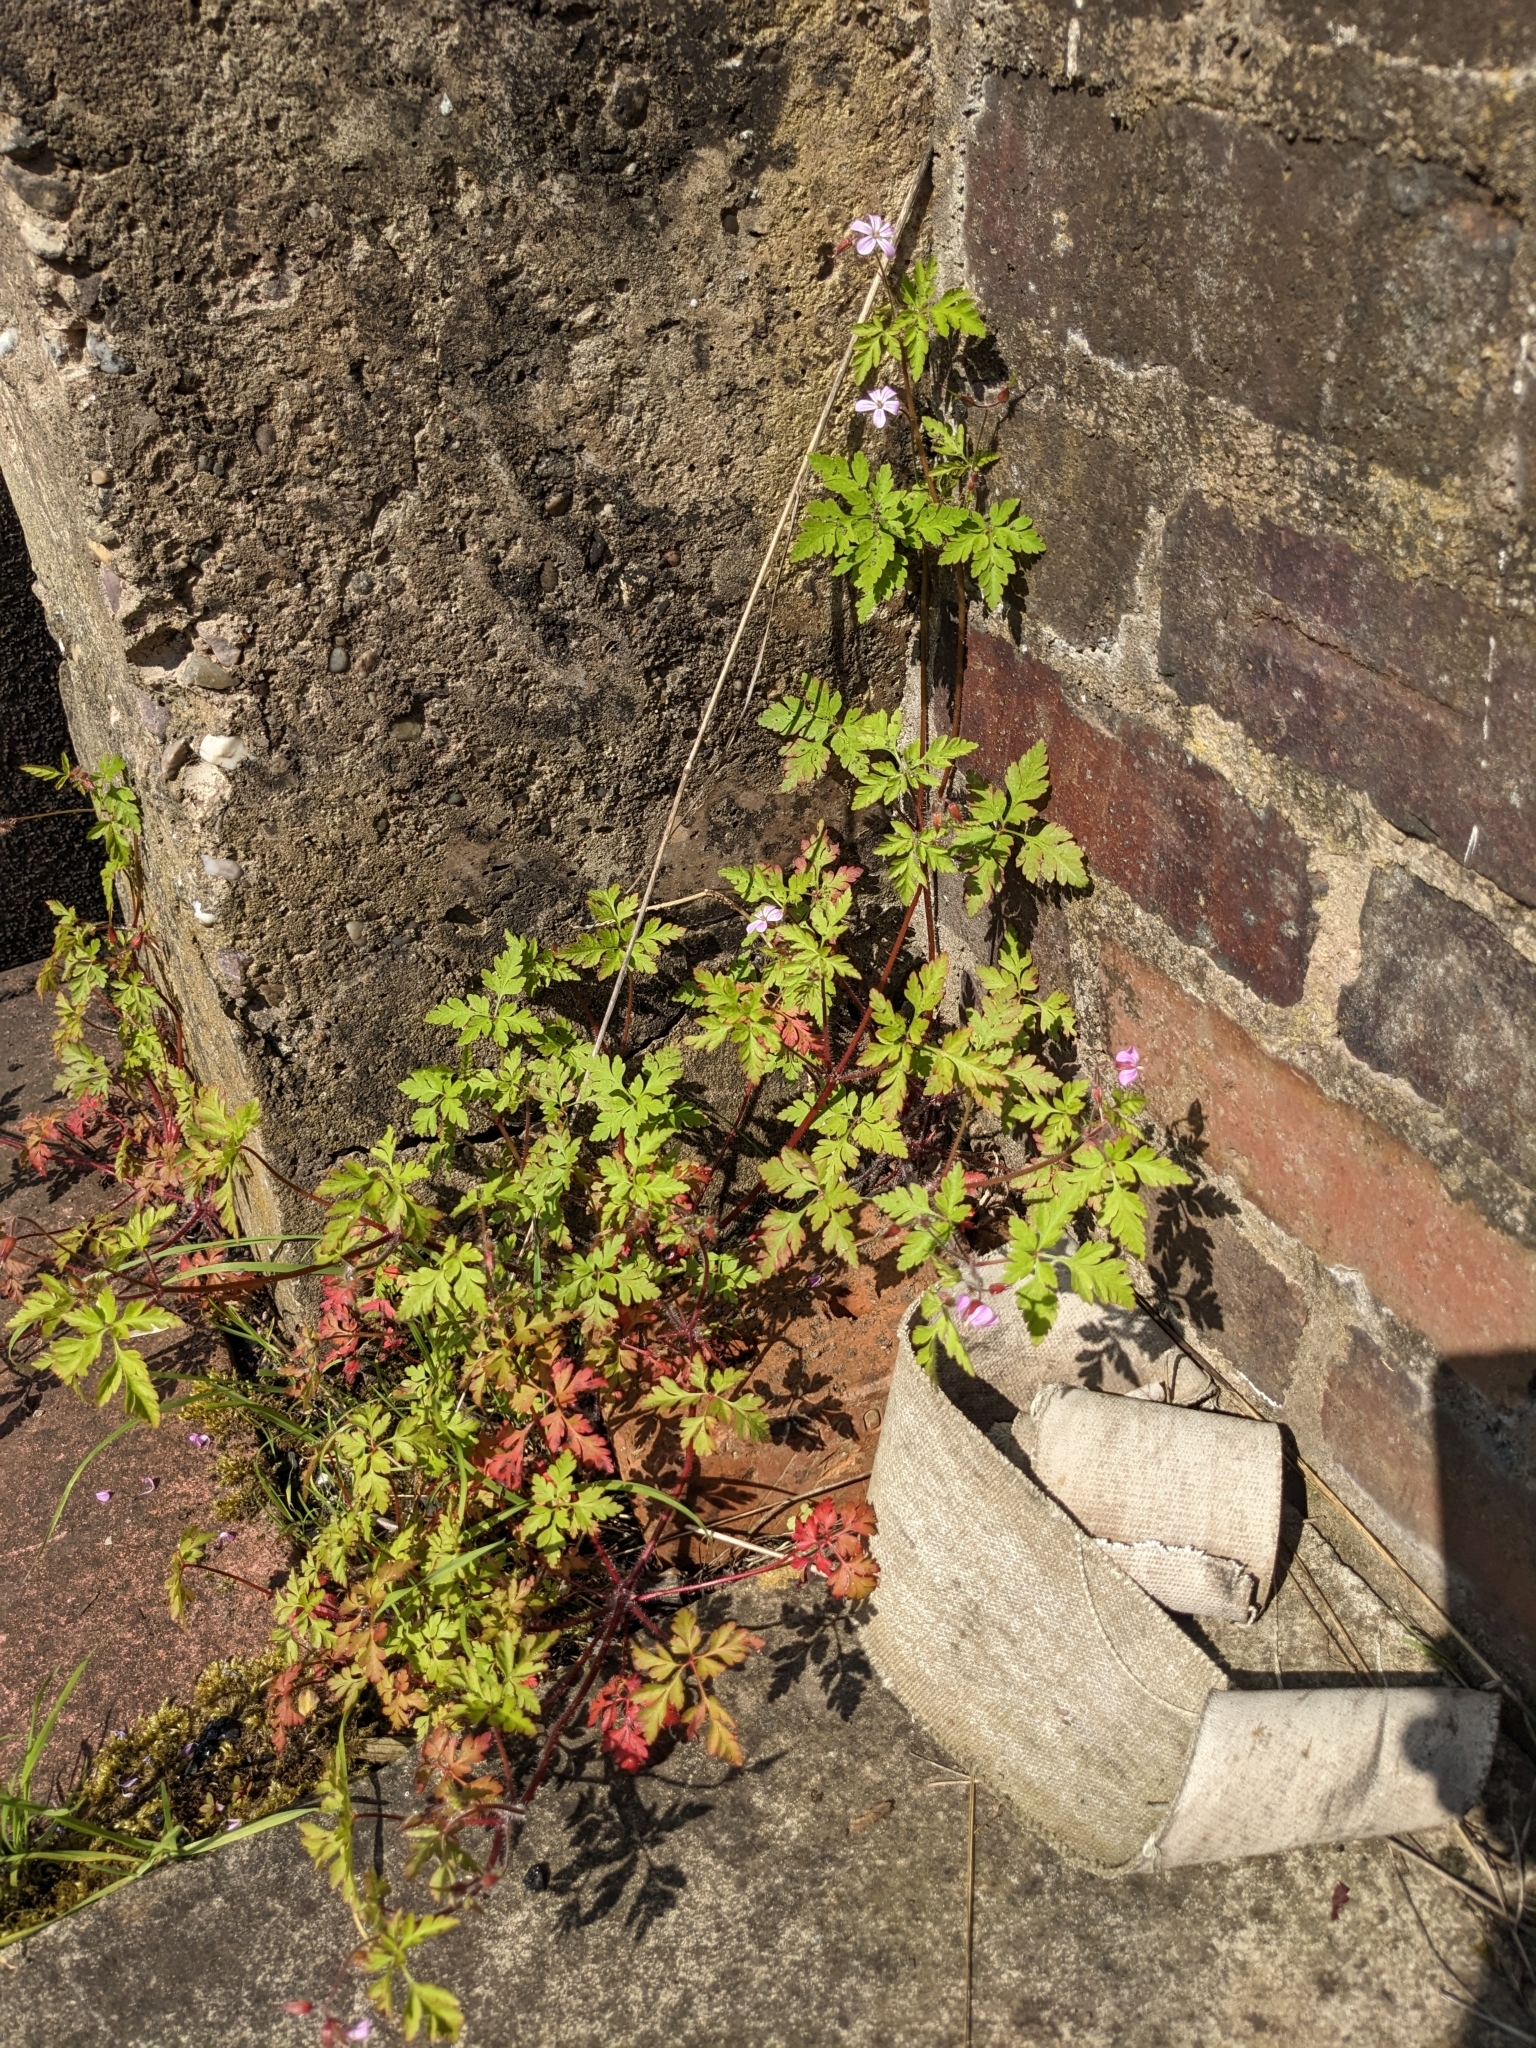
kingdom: Plantae
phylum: Tracheophyta
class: Magnoliopsida
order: Geraniales
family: Geraniaceae
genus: Geranium
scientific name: Geranium robertianum
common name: Herb-robert
